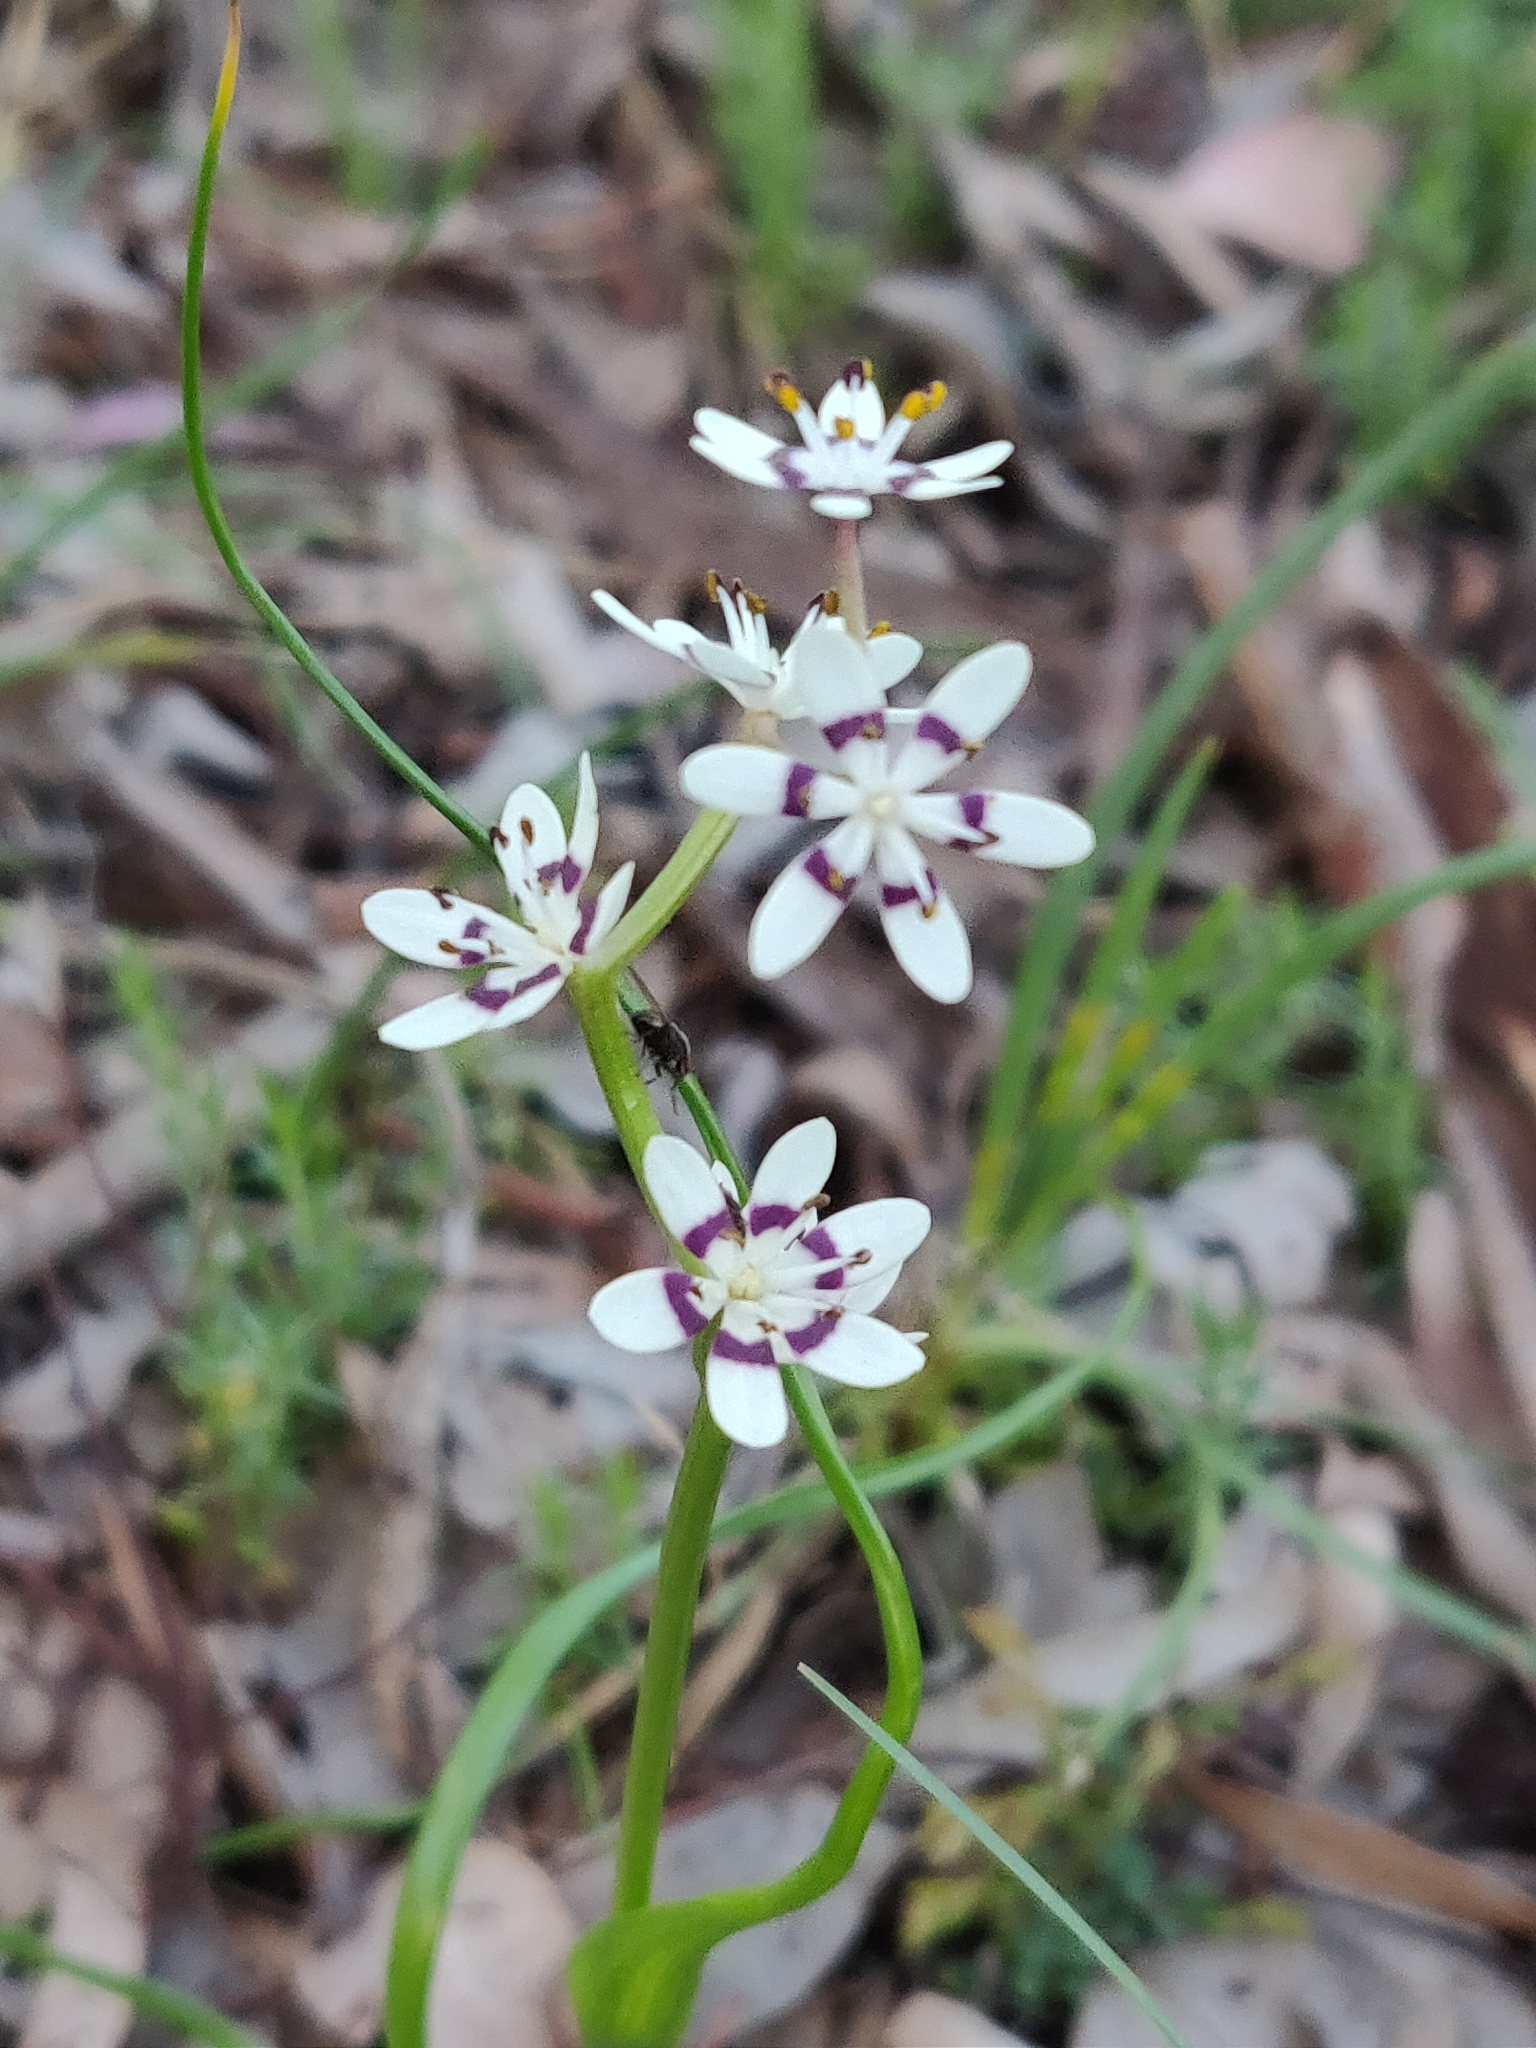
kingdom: Plantae
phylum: Tracheophyta
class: Liliopsida
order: Liliales
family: Colchicaceae
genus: Wurmbea
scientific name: Wurmbea dioica
